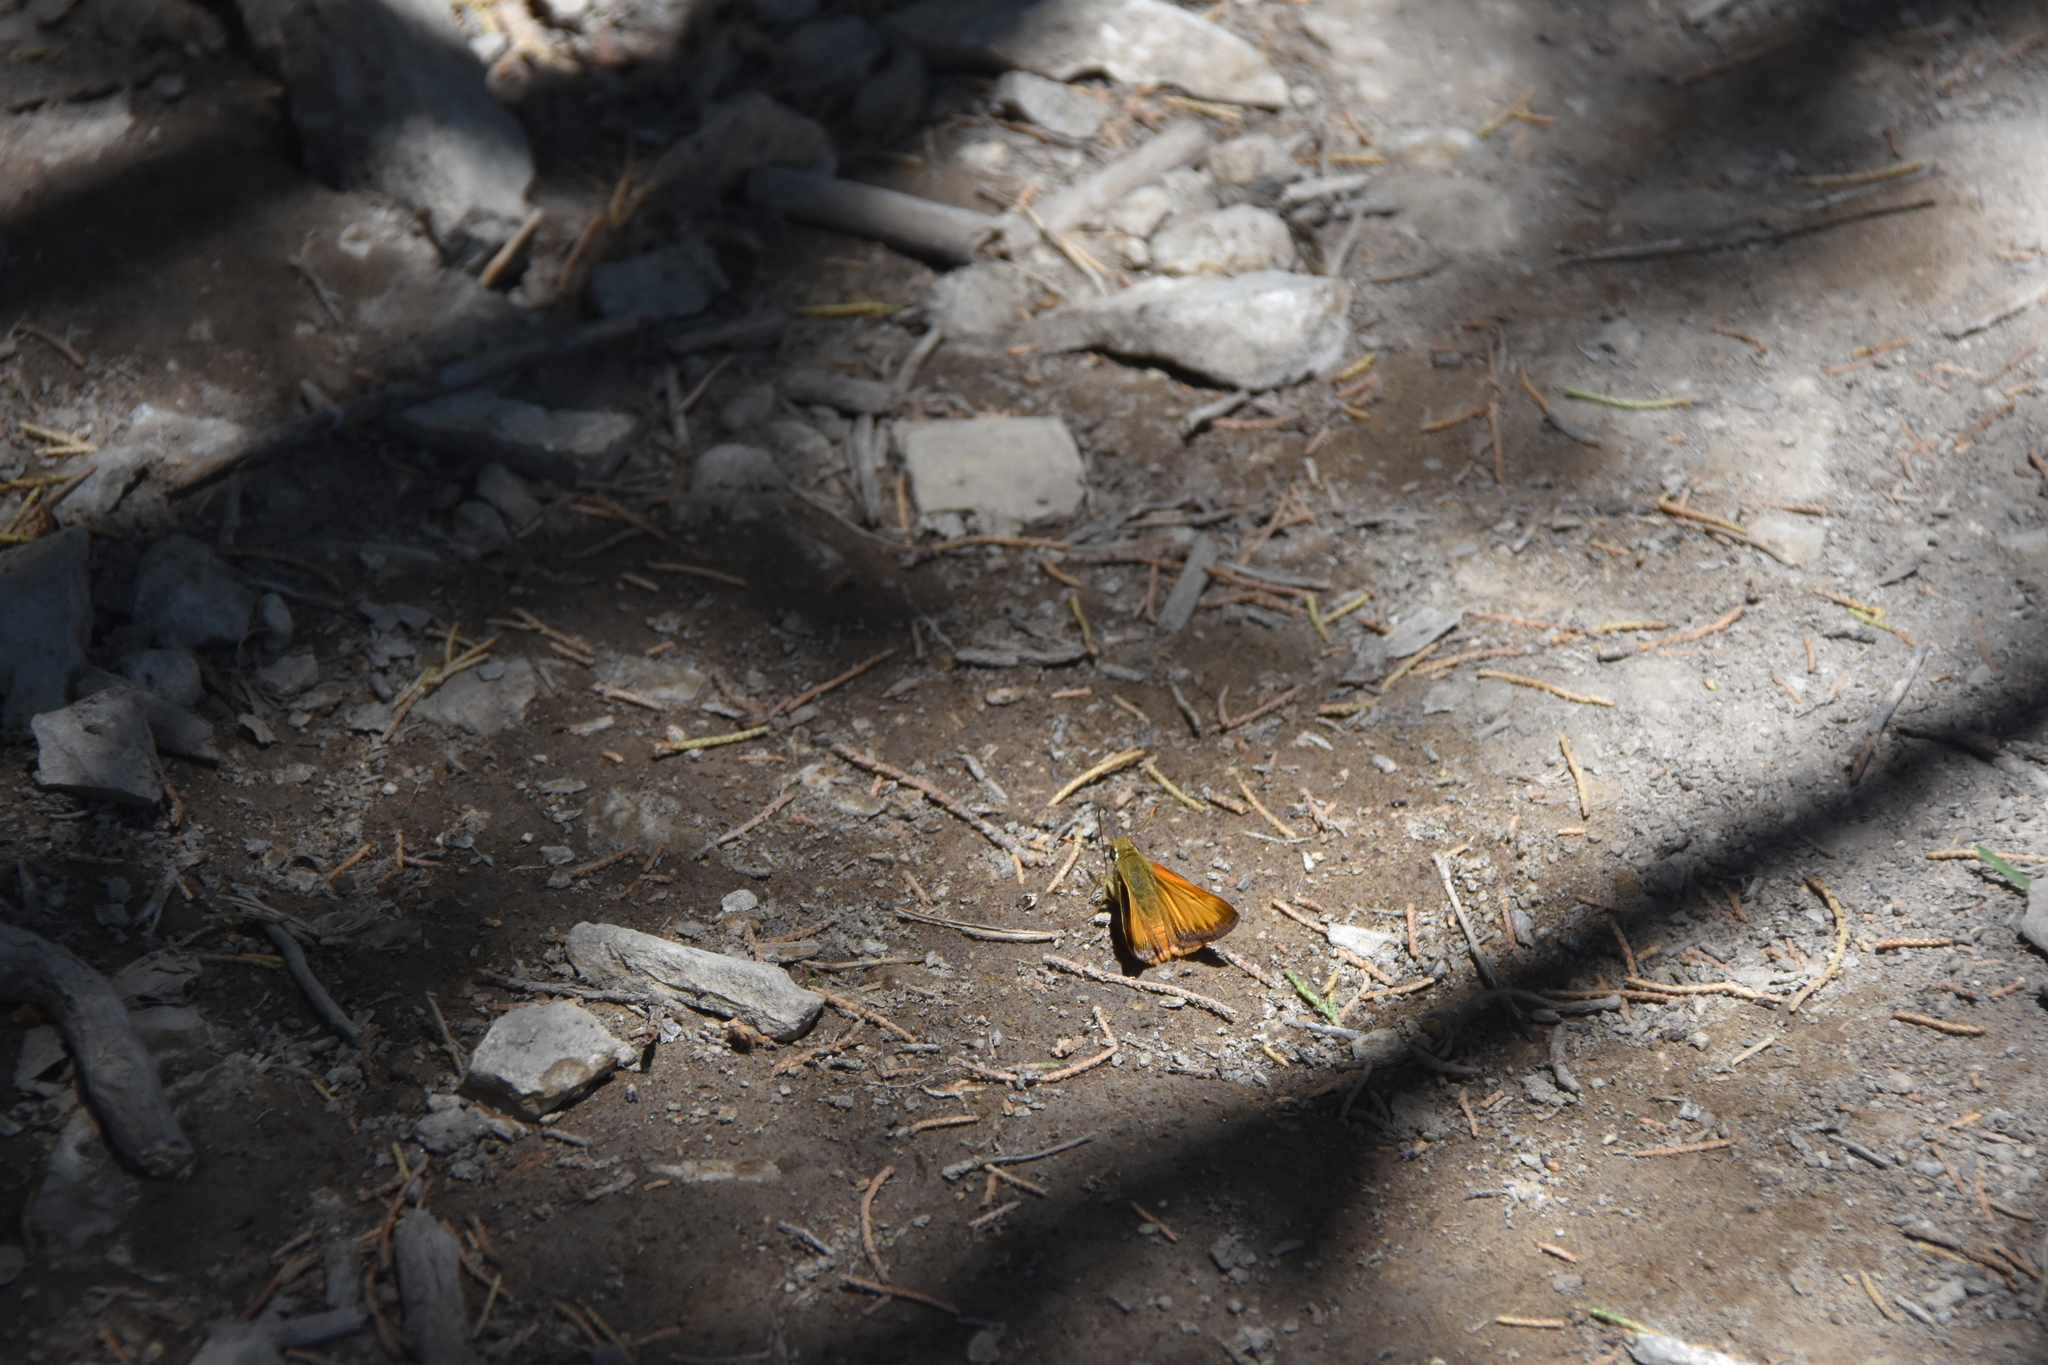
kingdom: Animalia
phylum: Arthropoda
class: Insecta
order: Lepidoptera
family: Hesperiidae
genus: Lon
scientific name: Lon taxiles
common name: Taxiles skipper
